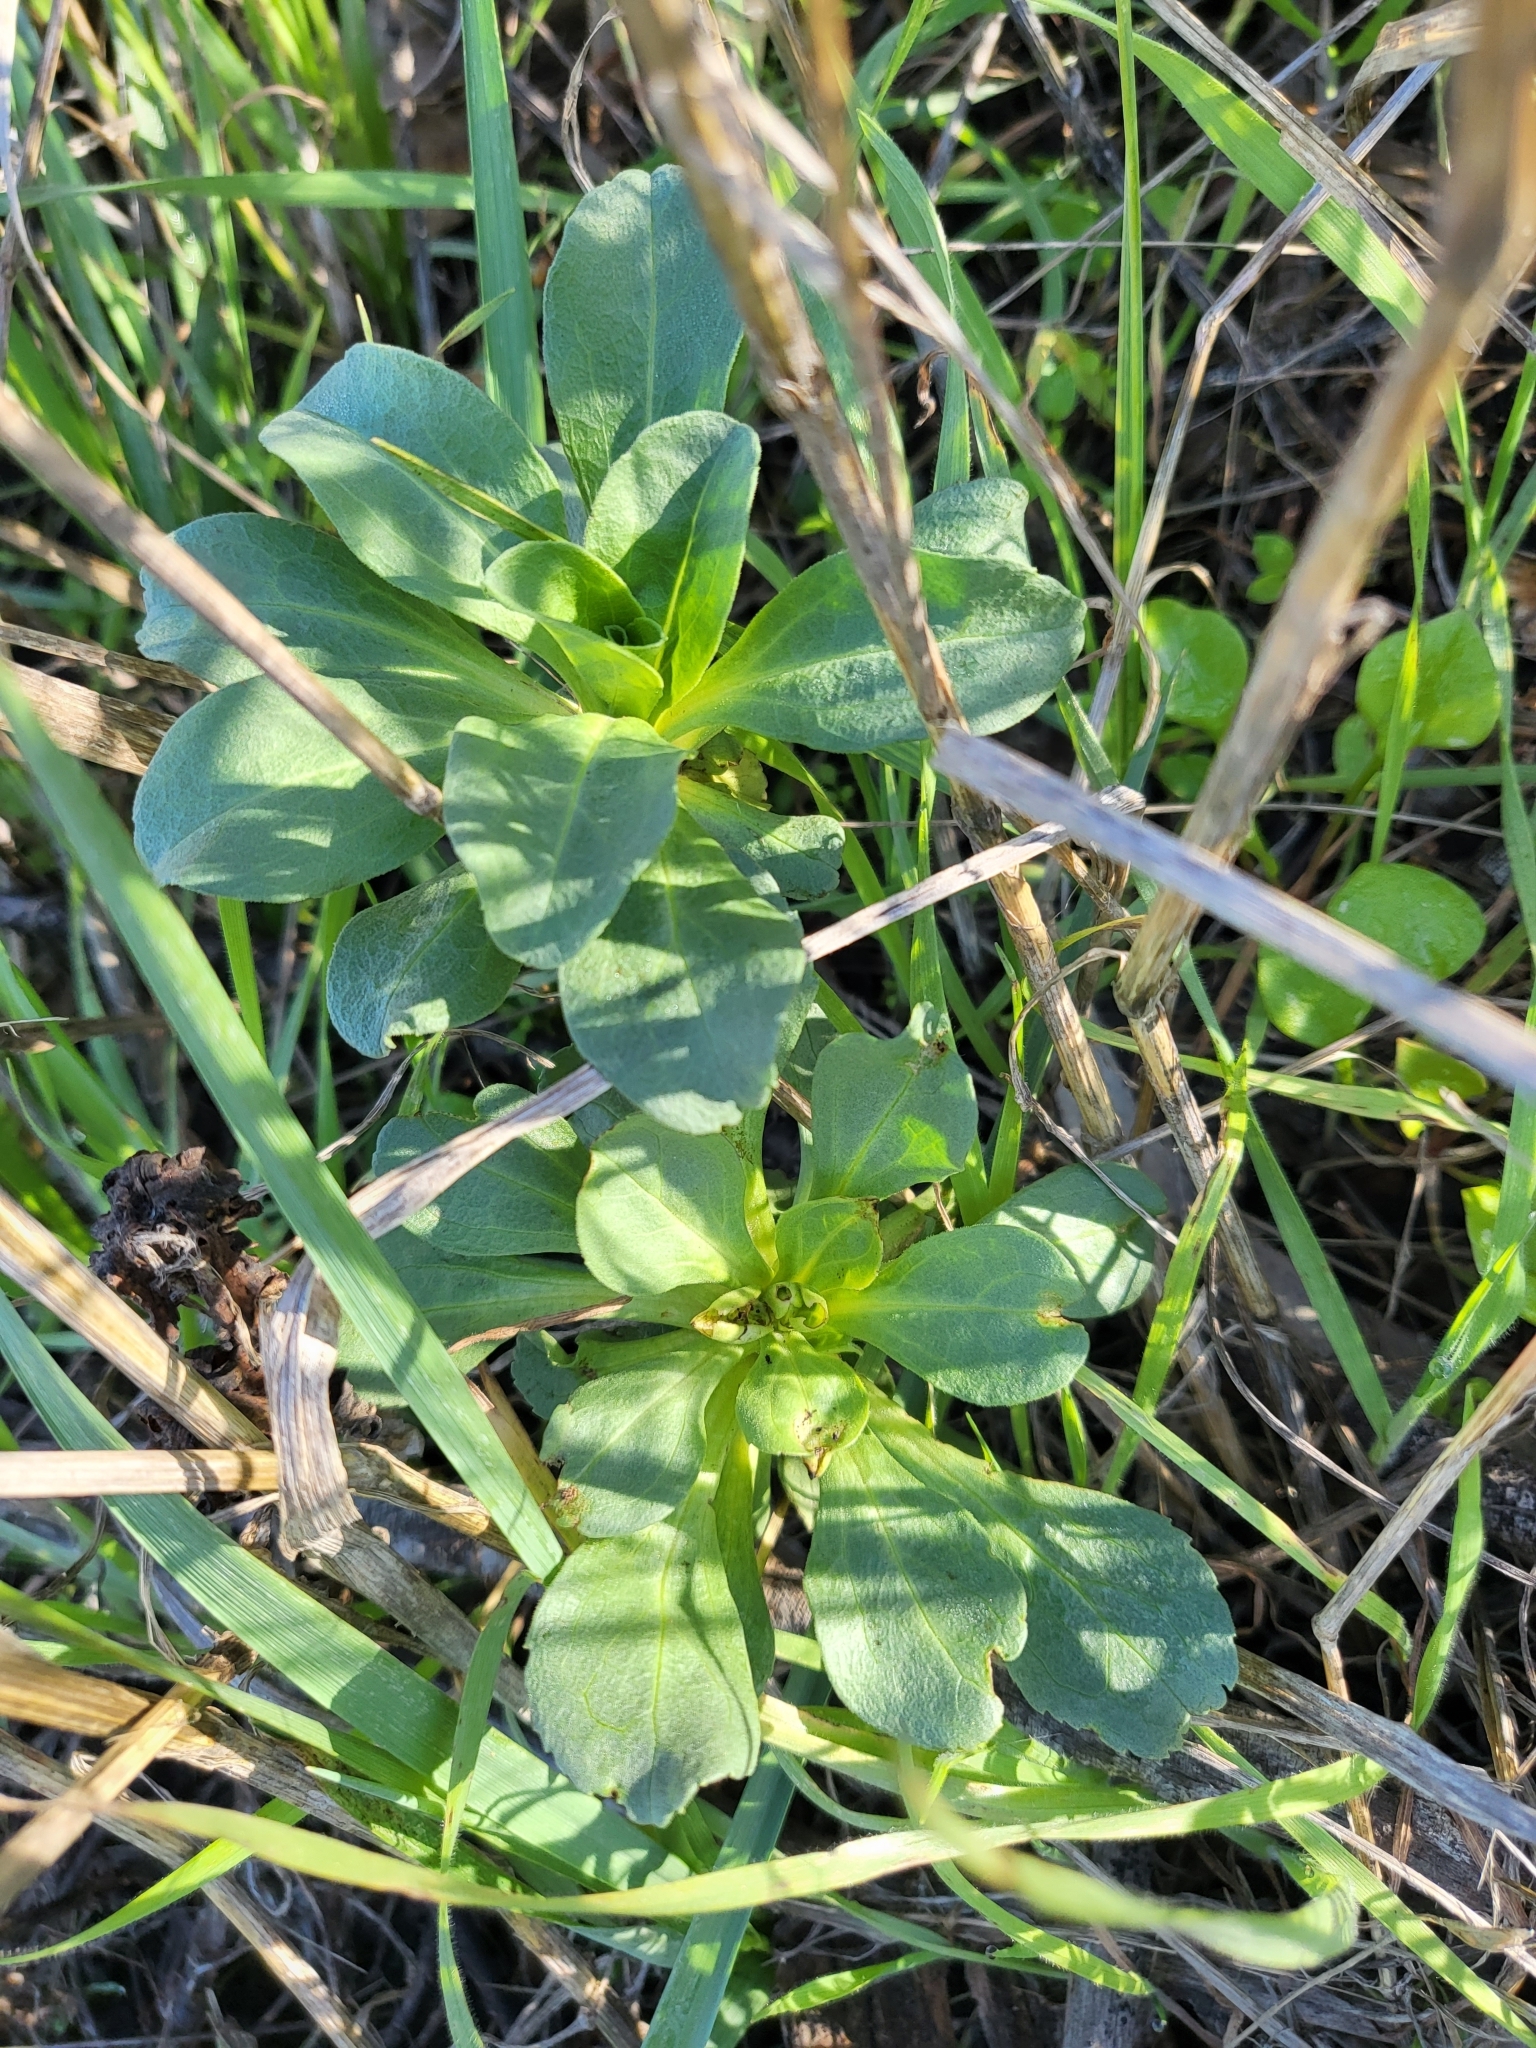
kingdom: Plantae
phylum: Tracheophyta
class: Magnoliopsida
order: Asterales
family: Asteraceae
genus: Erigeron
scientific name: Erigeron glaucus
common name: Seaside daisy
